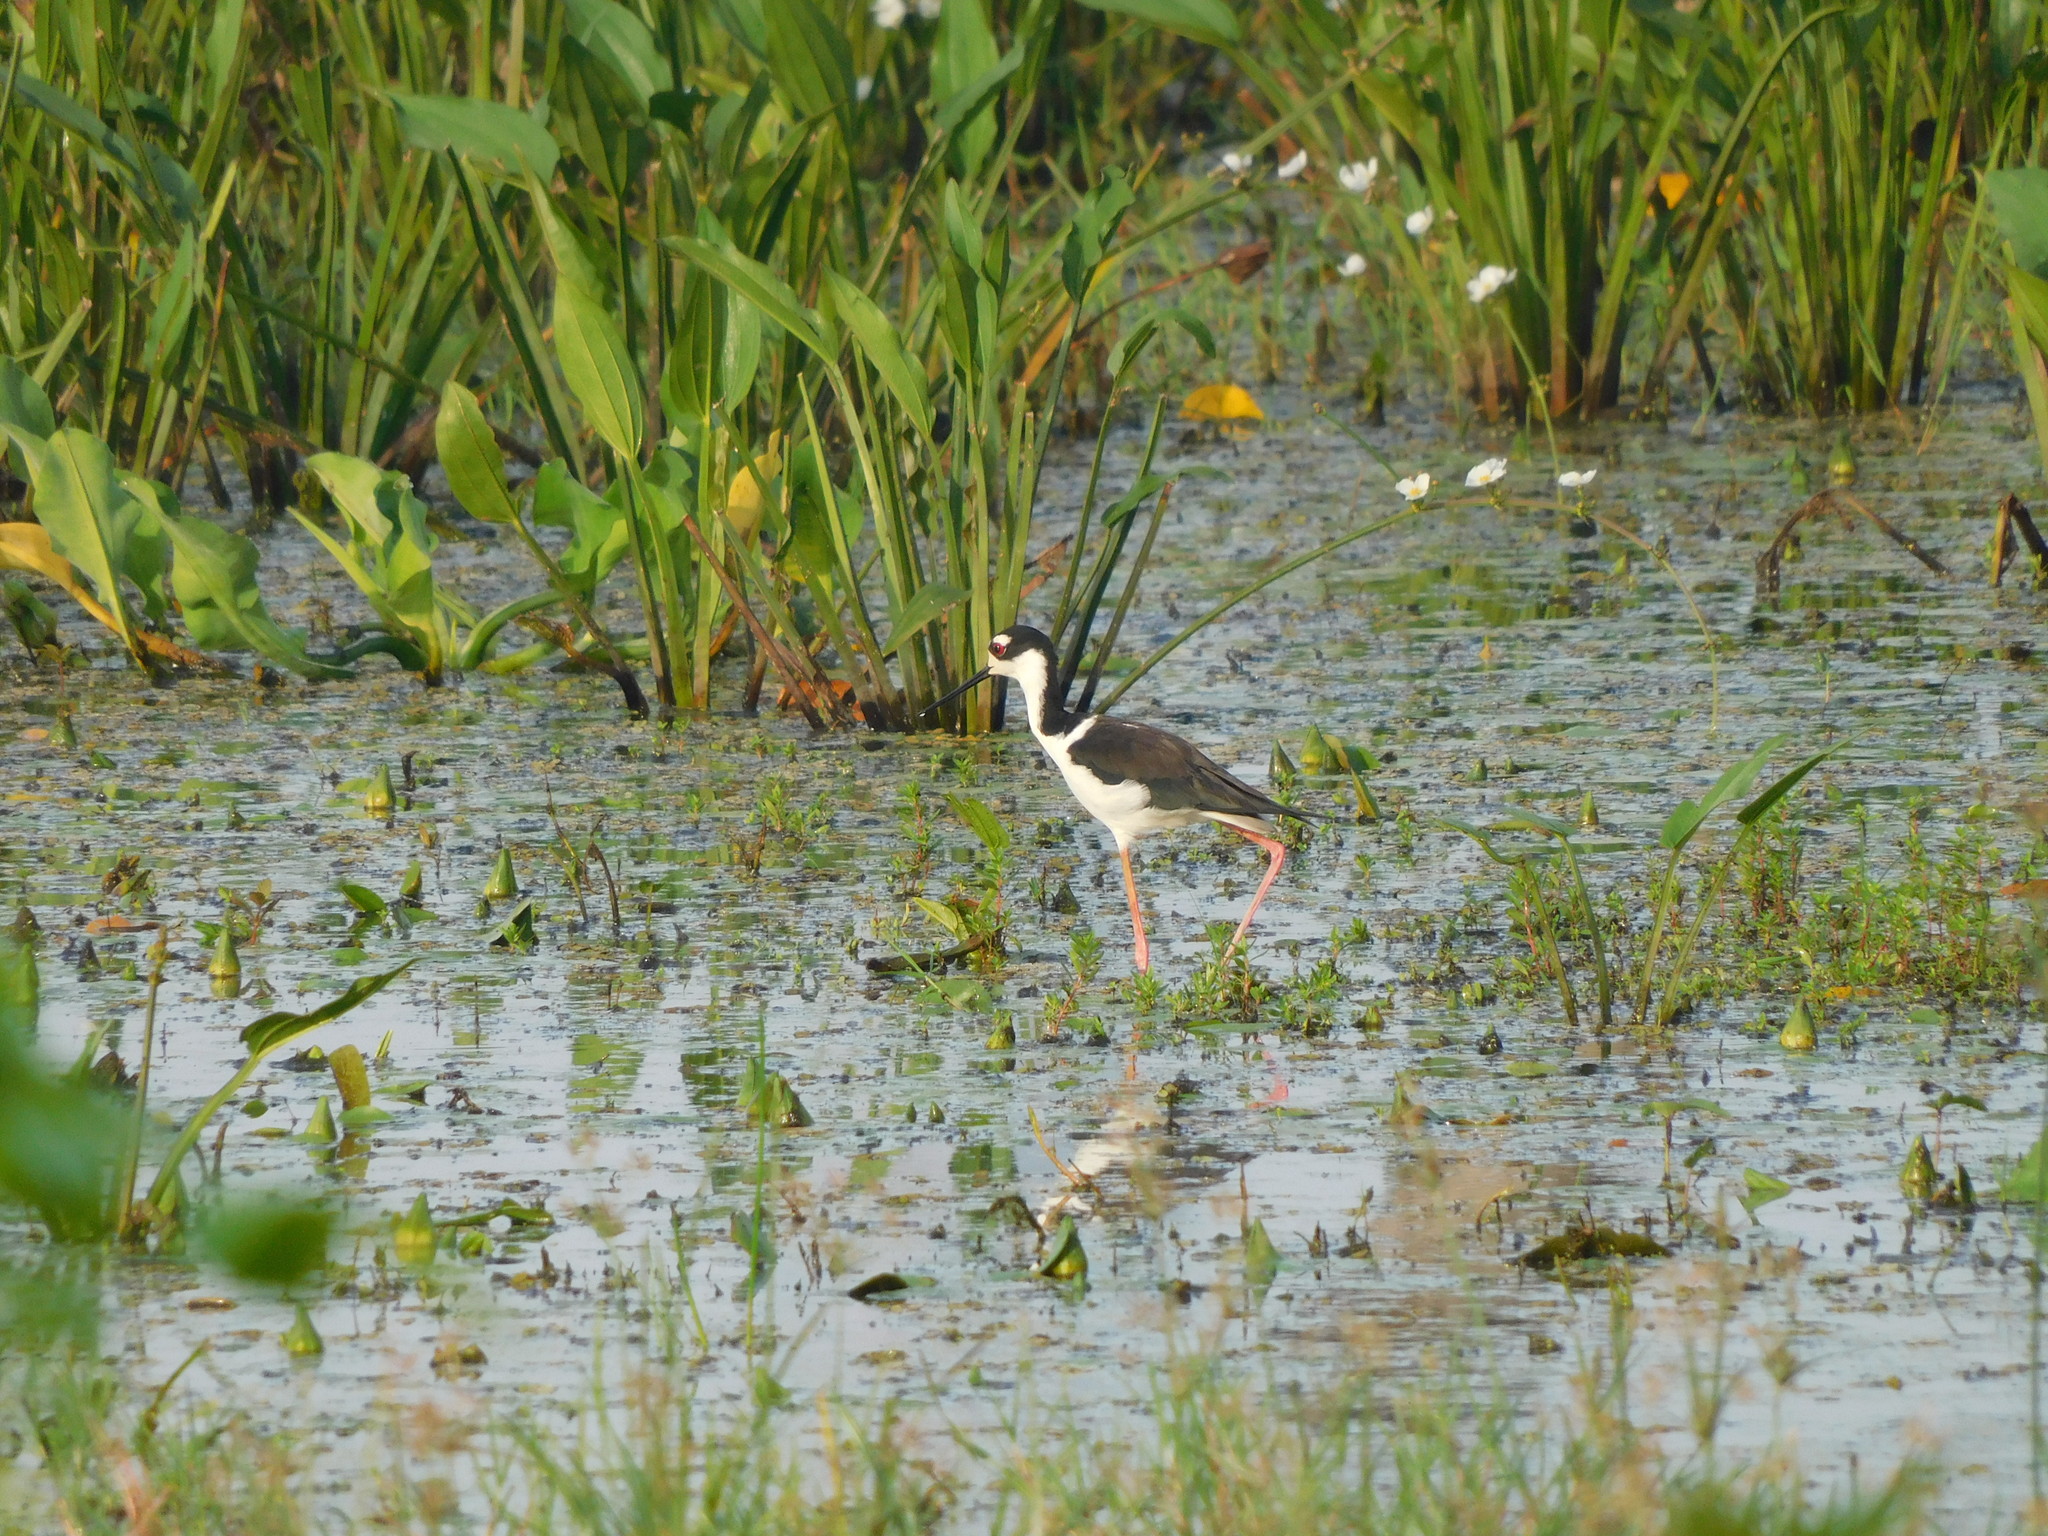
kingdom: Animalia
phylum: Chordata
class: Aves
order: Charadriiformes
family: Recurvirostridae
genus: Himantopus
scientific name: Himantopus mexicanus
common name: Black-necked stilt
